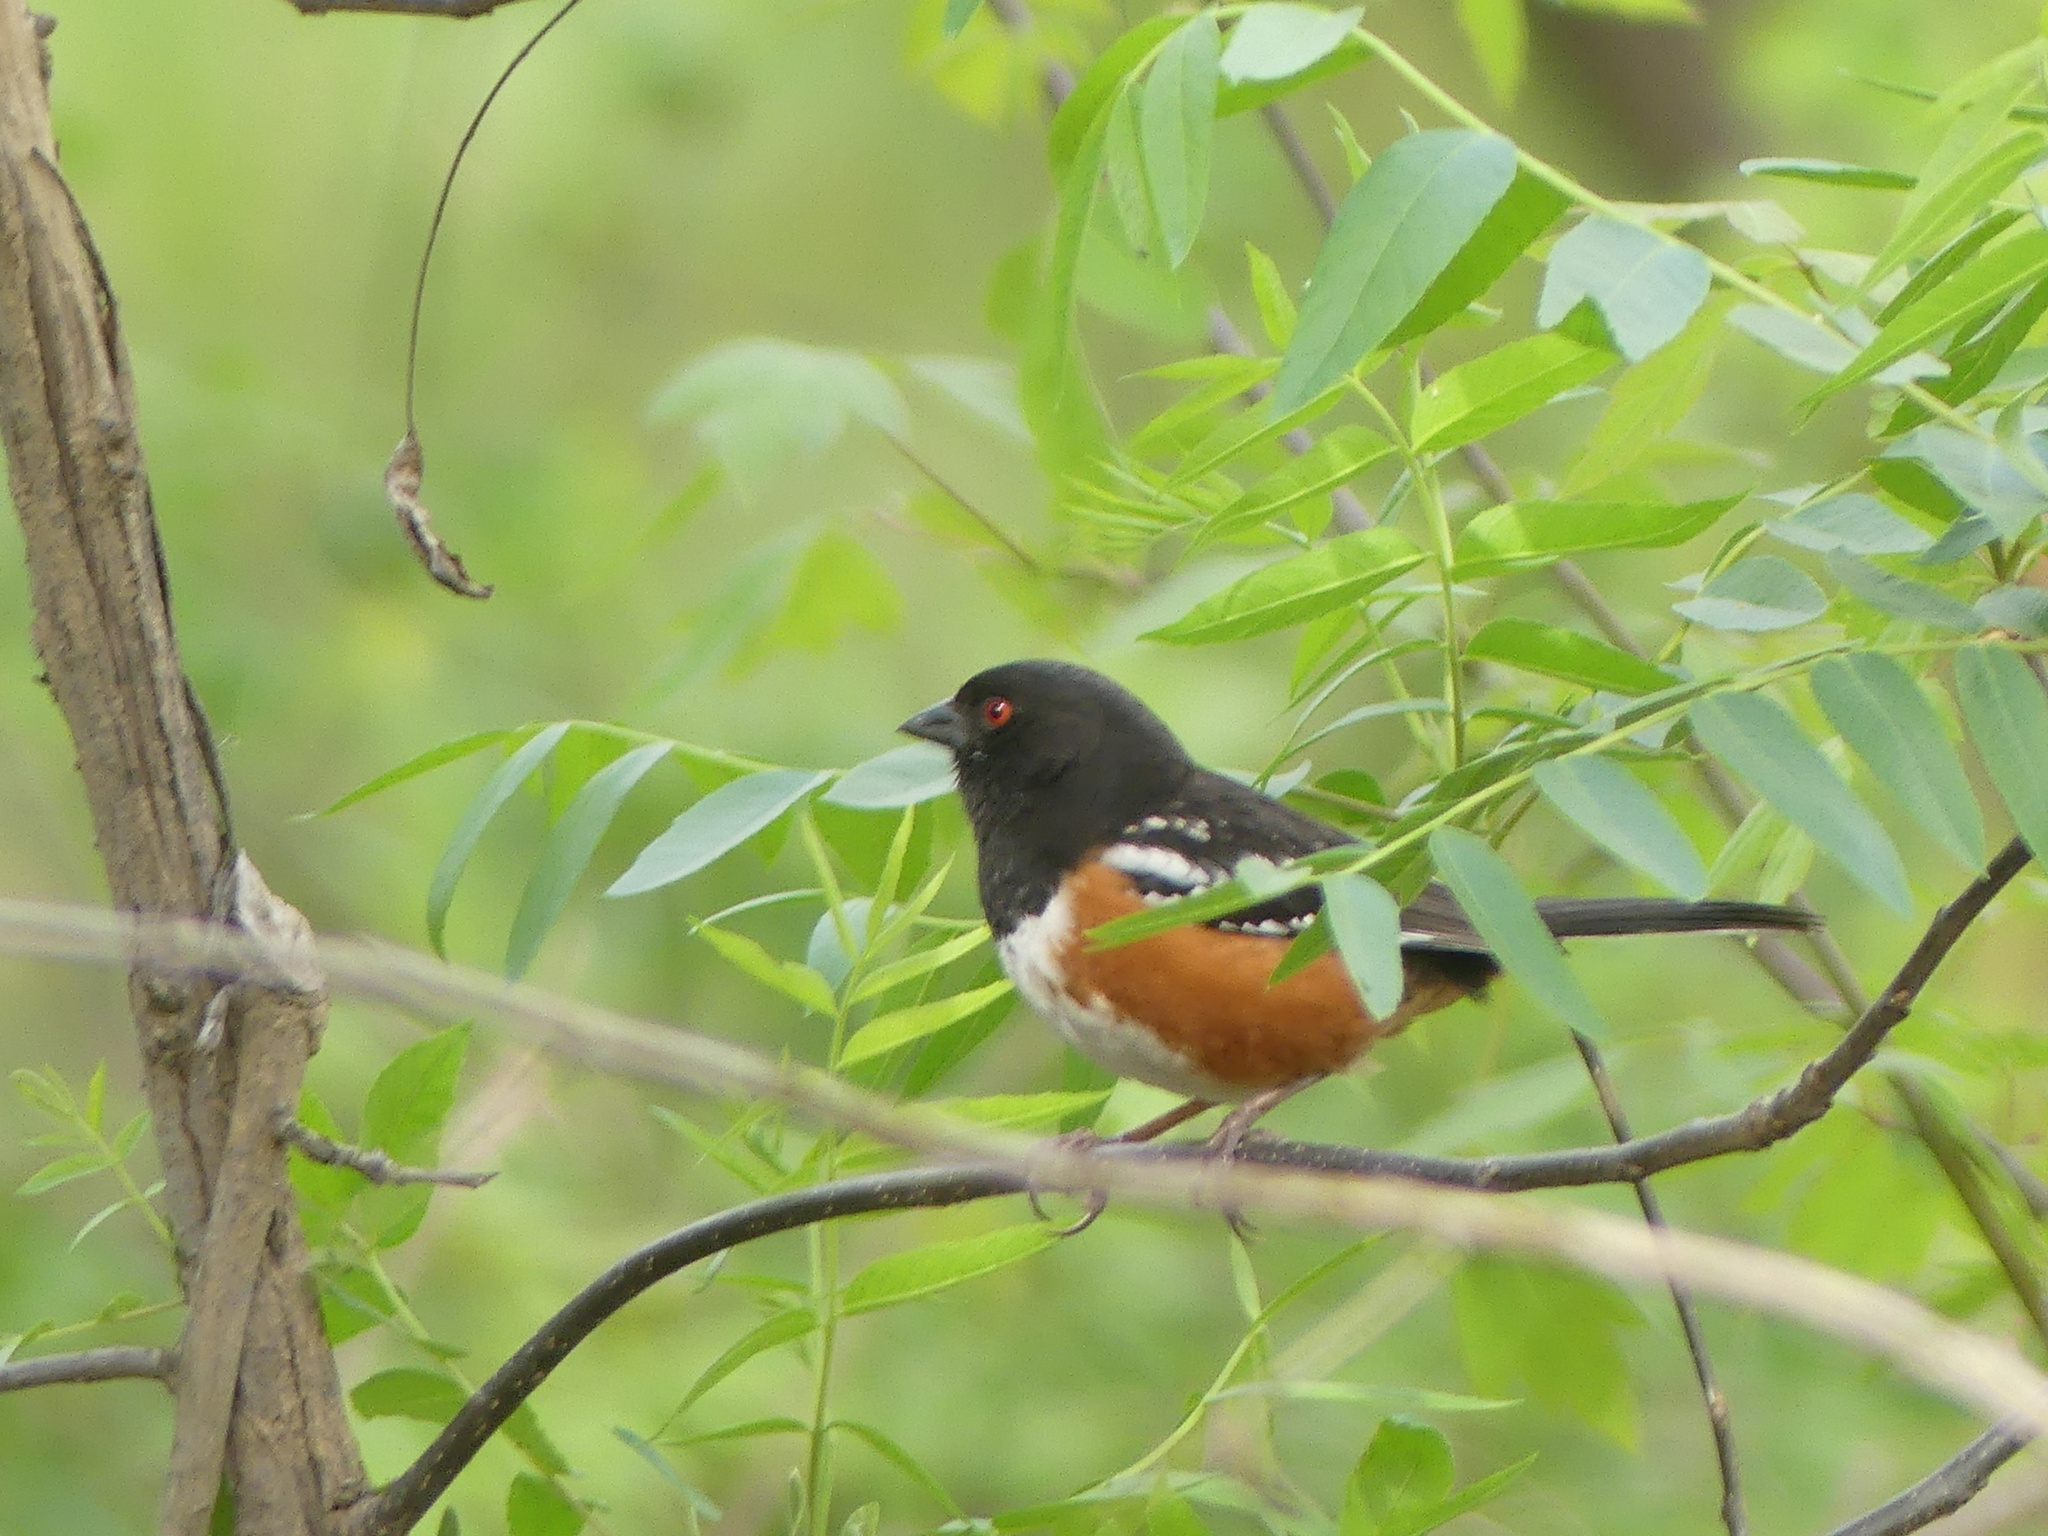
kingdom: Animalia
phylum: Chordata
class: Aves
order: Passeriformes
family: Passerellidae
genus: Pipilo
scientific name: Pipilo maculatus
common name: Spotted towhee
